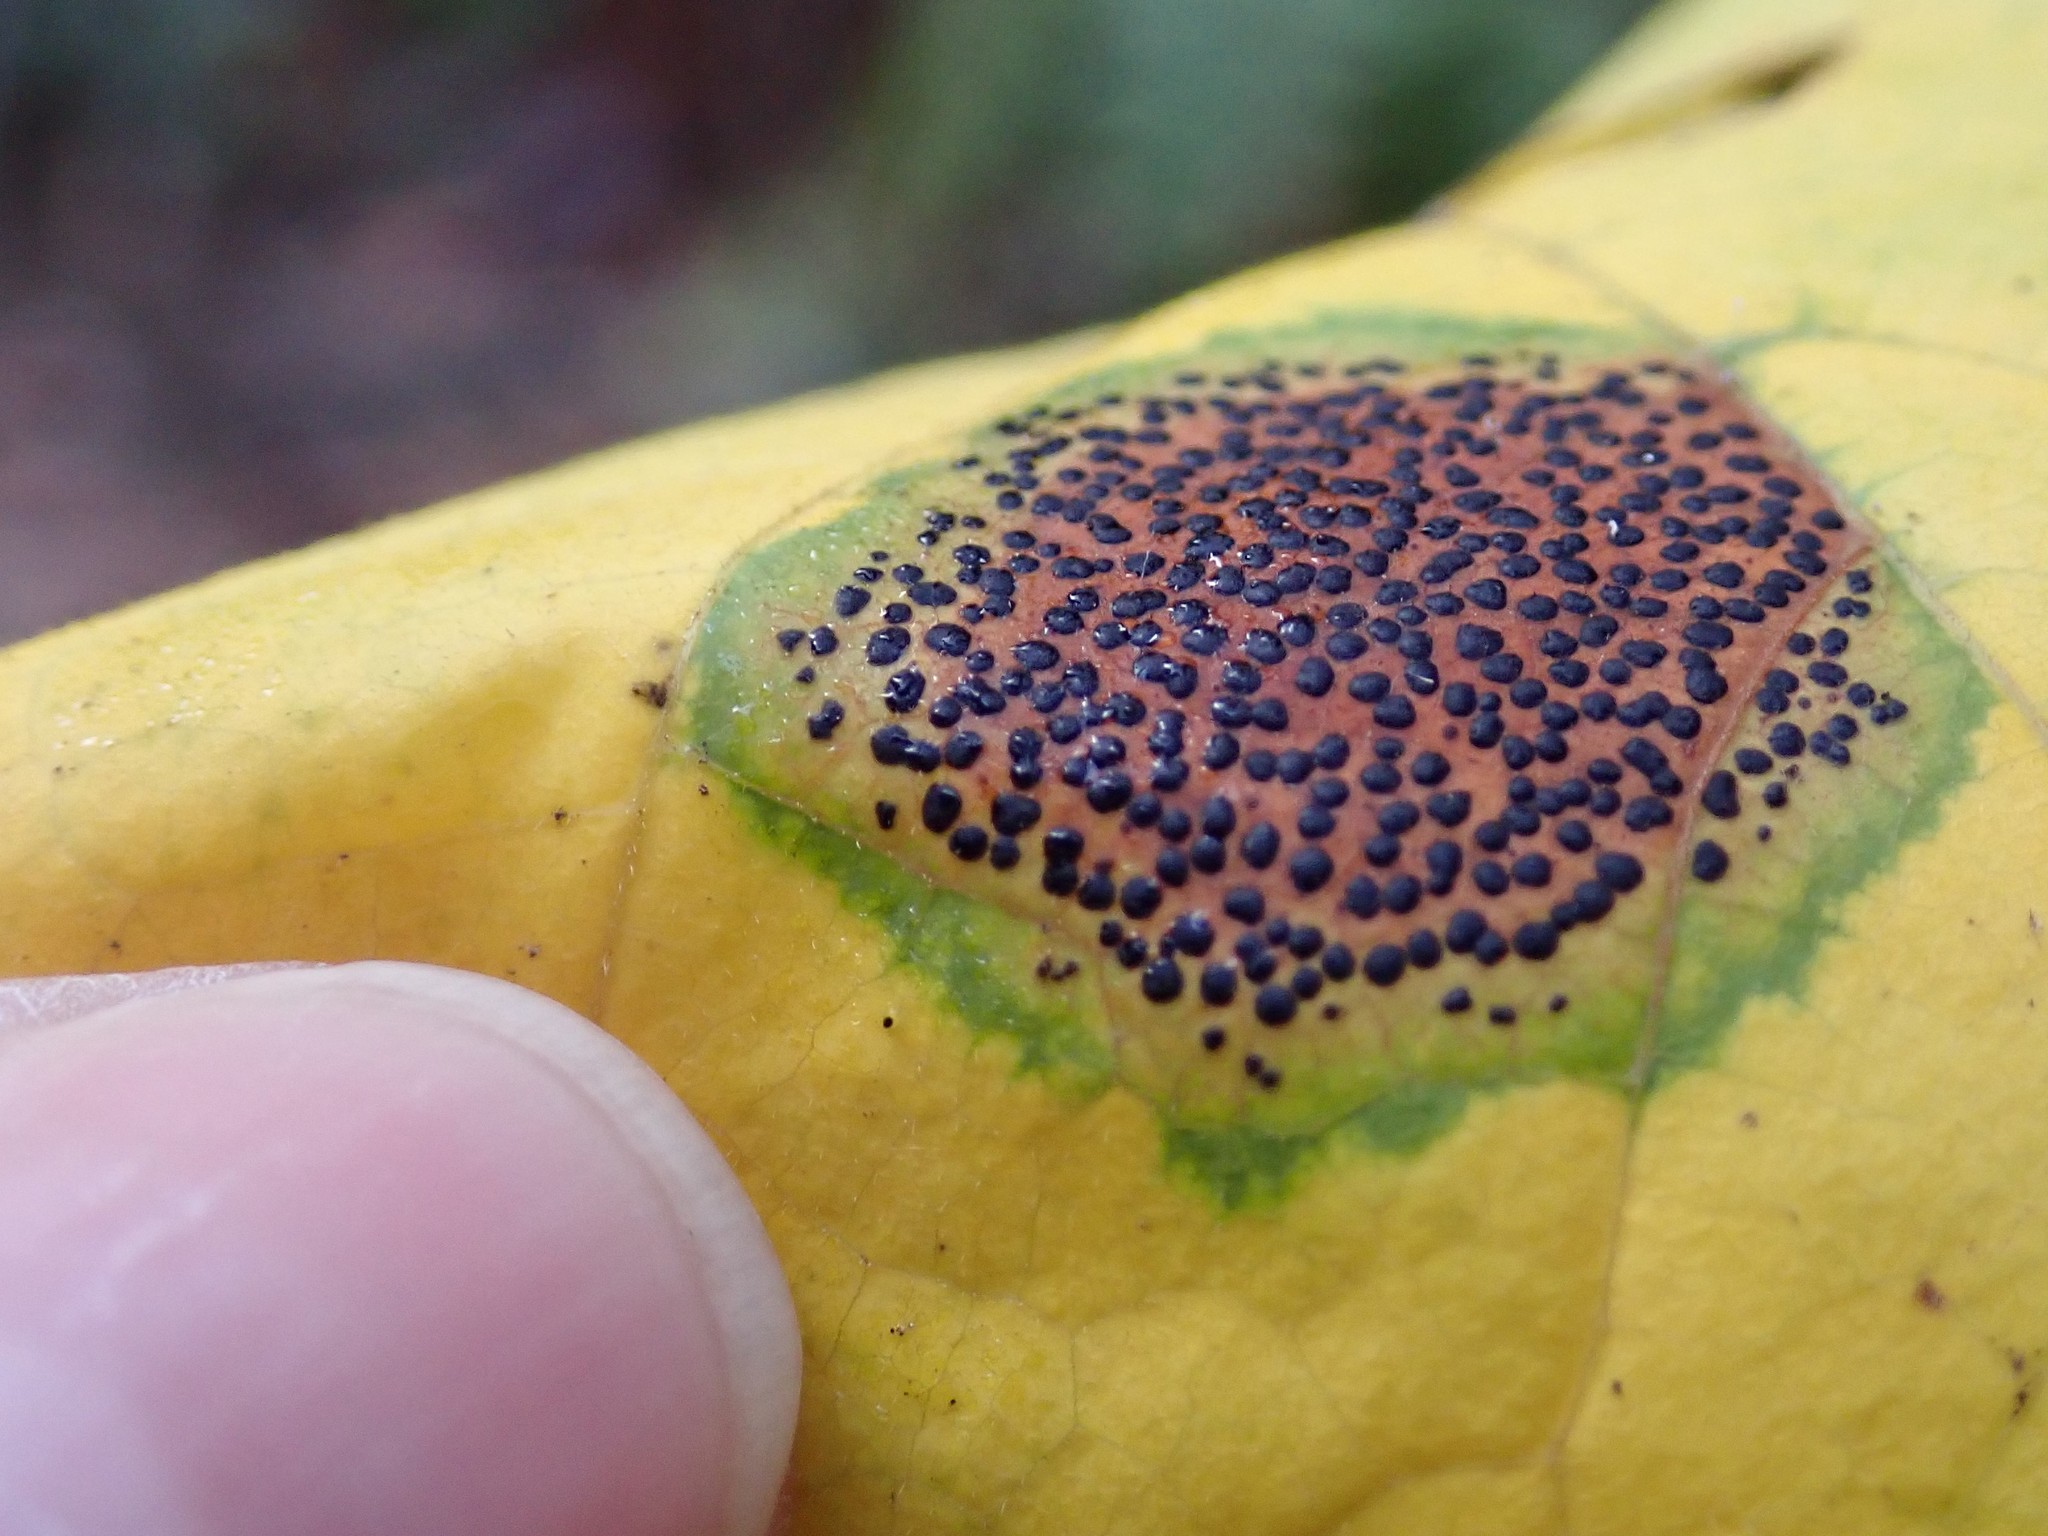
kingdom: Fungi
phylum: Ascomycota
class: Leotiomycetes
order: Rhytismatales
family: Rhytismataceae
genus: Rhytisma
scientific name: Rhytisma punctatum
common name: Speckled tar spot
